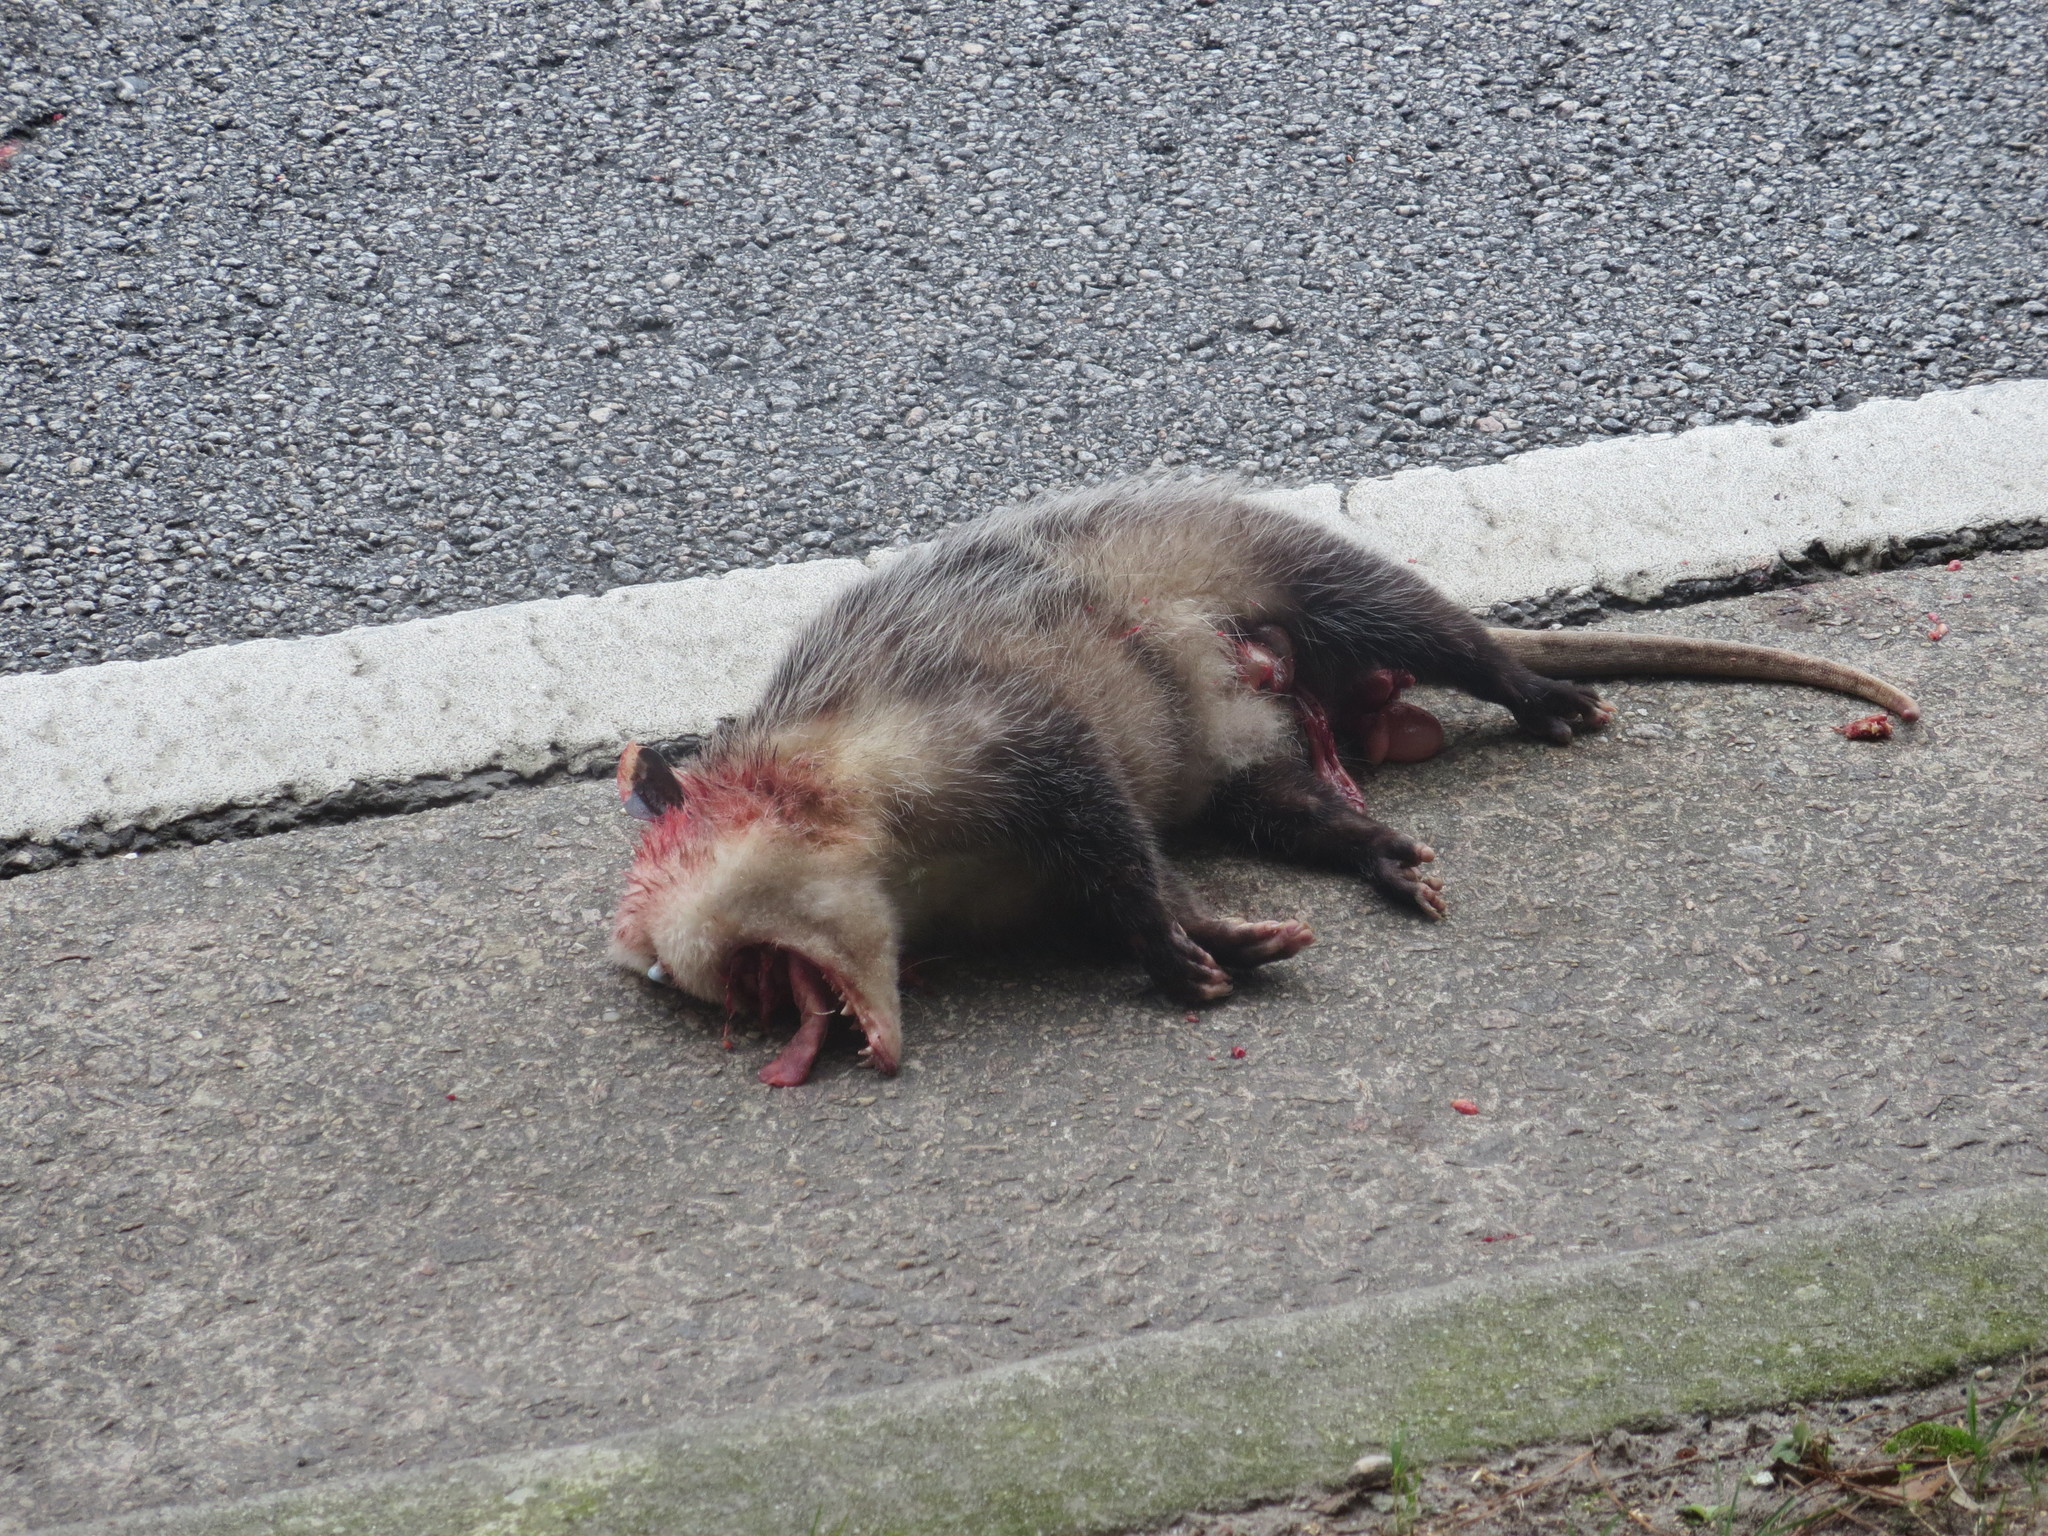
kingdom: Animalia
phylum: Chordata
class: Mammalia
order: Didelphimorphia
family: Didelphidae
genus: Didelphis
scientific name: Didelphis virginiana
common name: Virginia opossum
